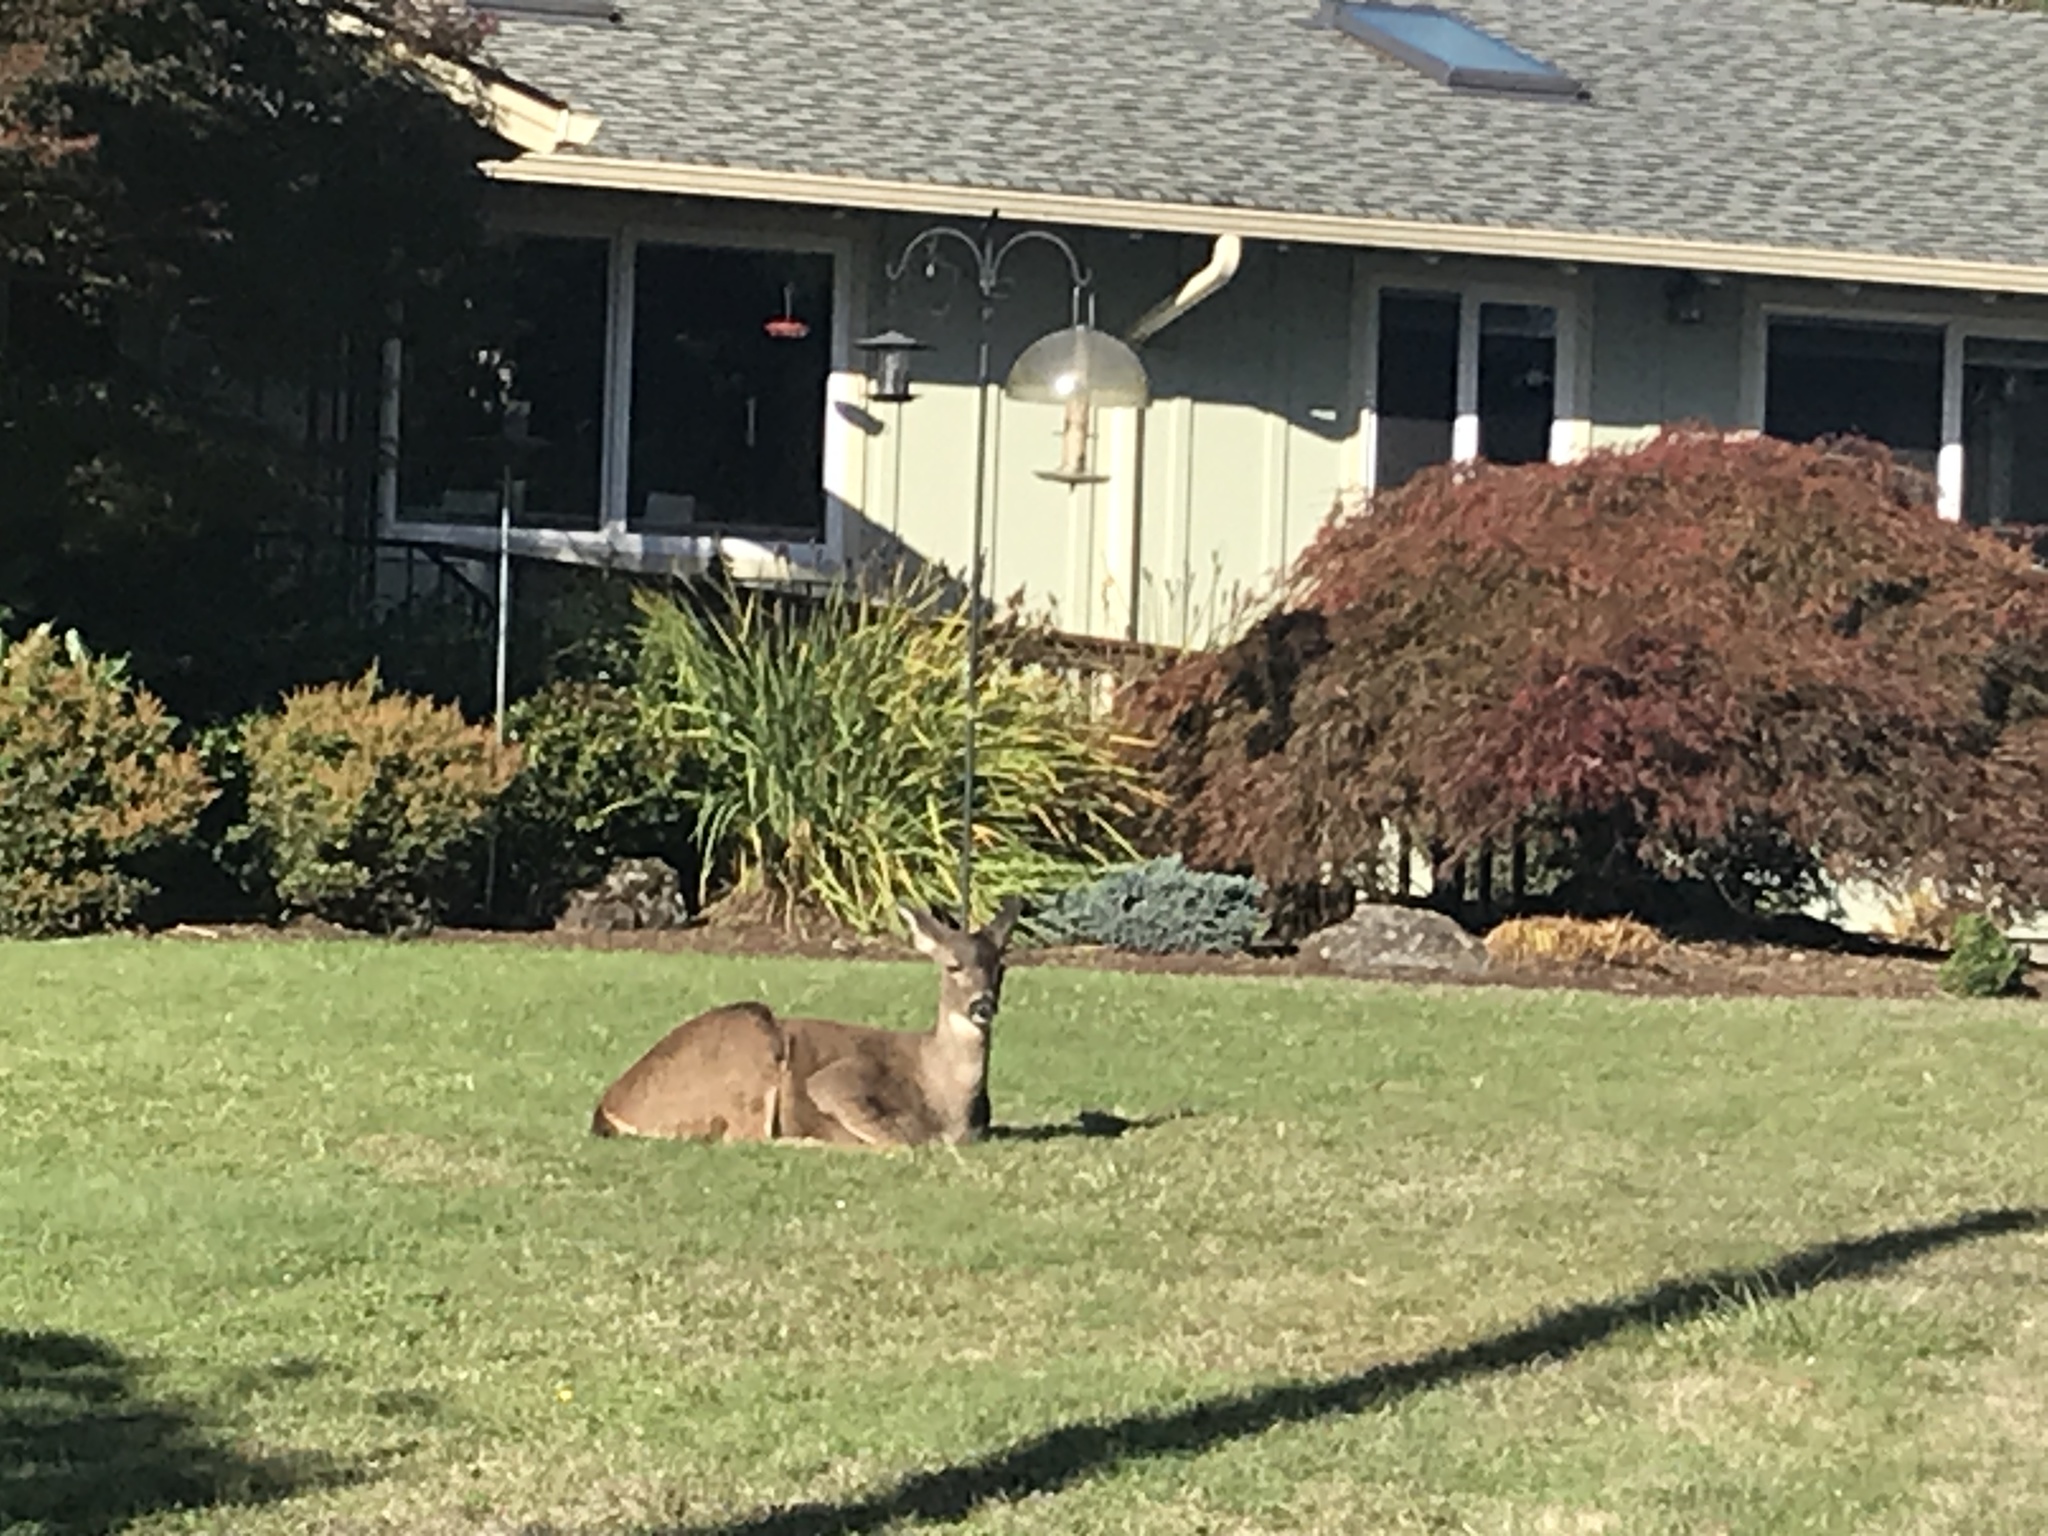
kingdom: Animalia
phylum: Chordata
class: Mammalia
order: Artiodactyla
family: Cervidae
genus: Odocoileus
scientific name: Odocoileus hemionus
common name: Mule deer
